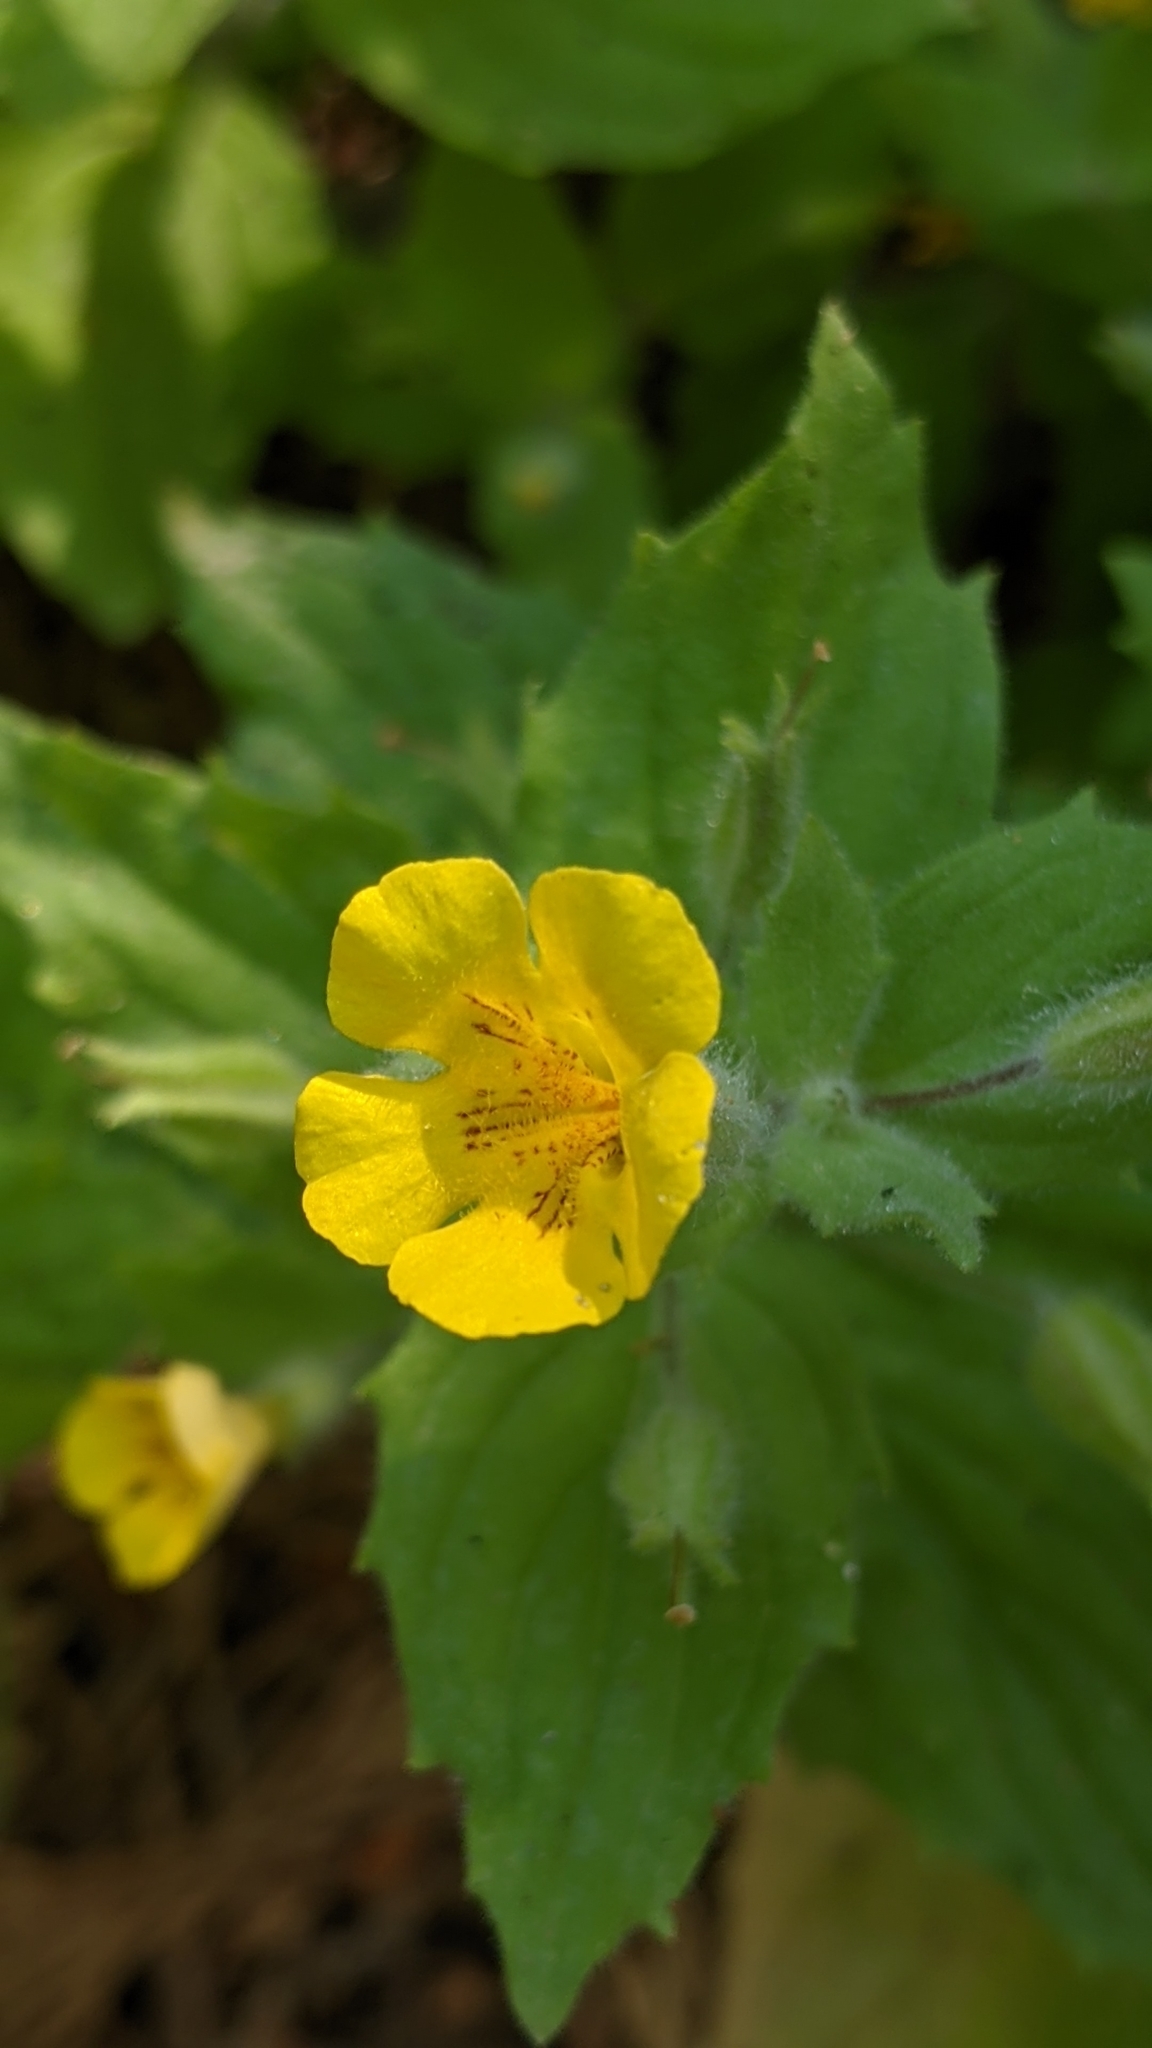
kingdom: Plantae
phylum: Tracheophyta
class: Magnoliopsida
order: Lamiales
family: Phrymaceae
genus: Erythranthe
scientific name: Erythranthe moschata
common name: Muskflower
